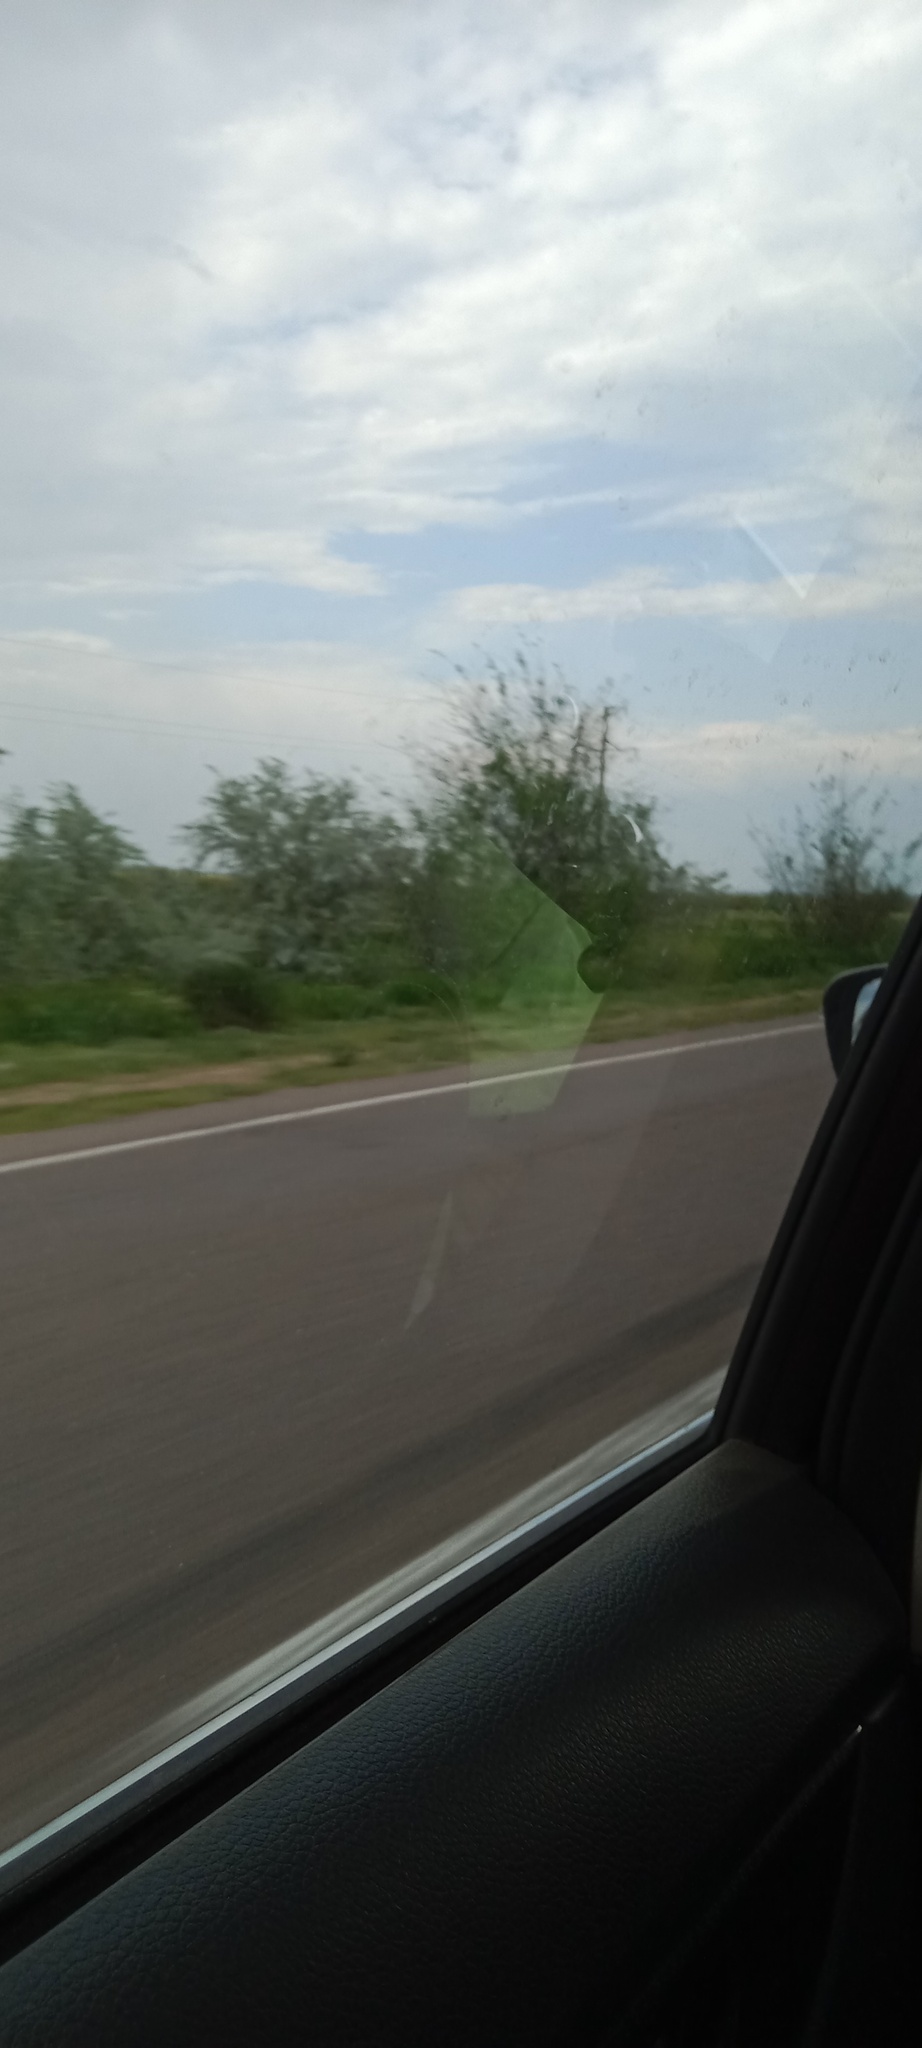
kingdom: Plantae
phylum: Tracheophyta
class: Magnoliopsida
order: Rosales
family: Elaeagnaceae
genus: Elaeagnus
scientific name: Elaeagnus angustifolia
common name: Russian olive
